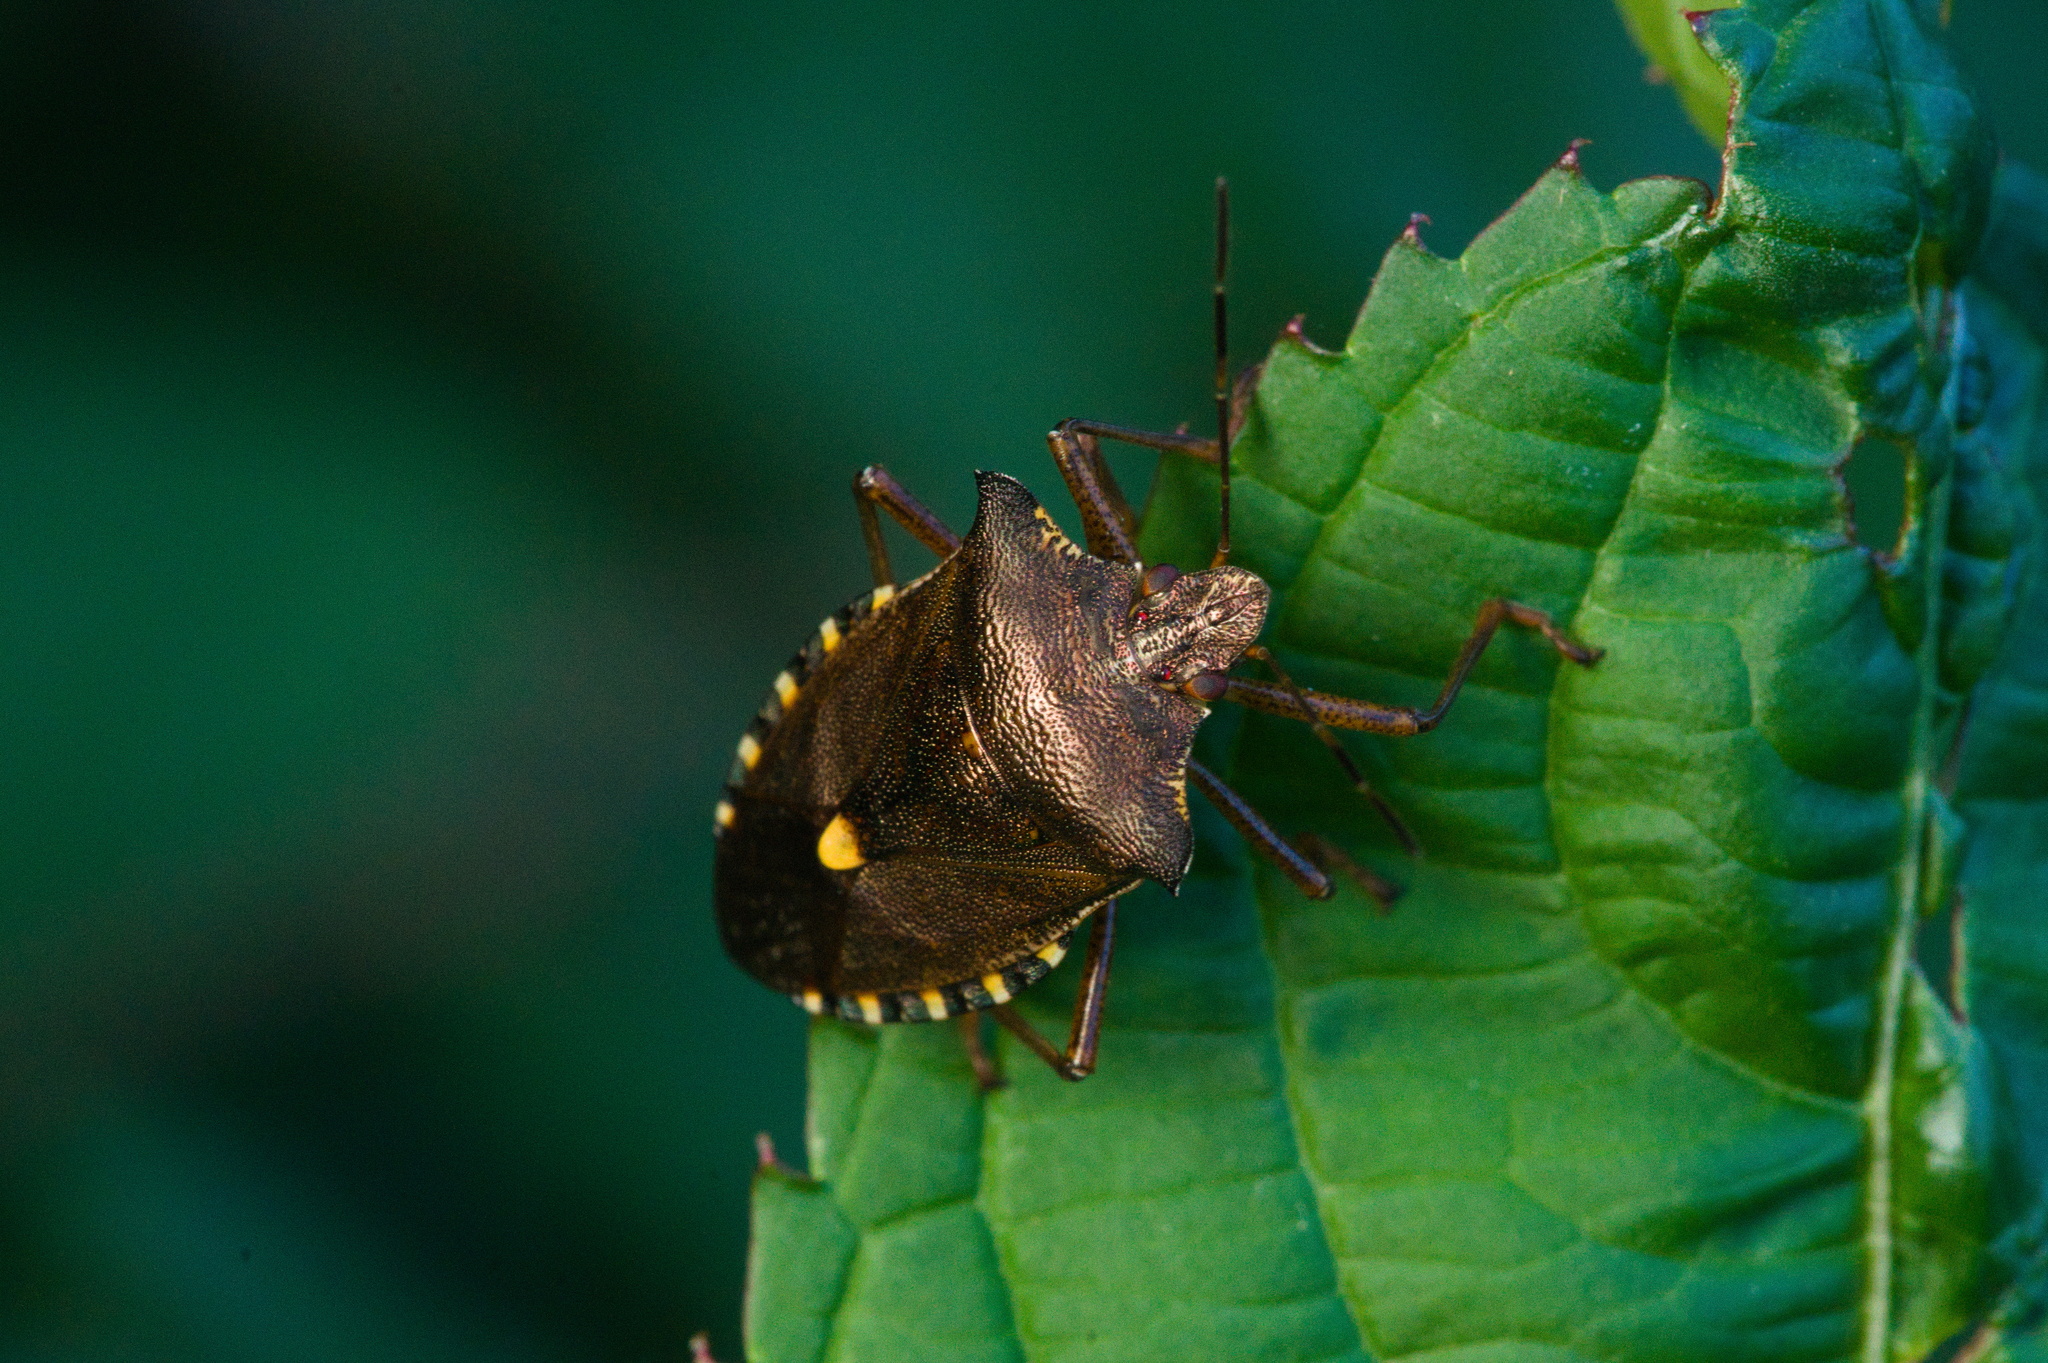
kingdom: Animalia
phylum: Arthropoda
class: Insecta
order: Hemiptera
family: Pentatomidae
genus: Pentatoma
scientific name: Pentatoma rufipes
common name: Forest bug
